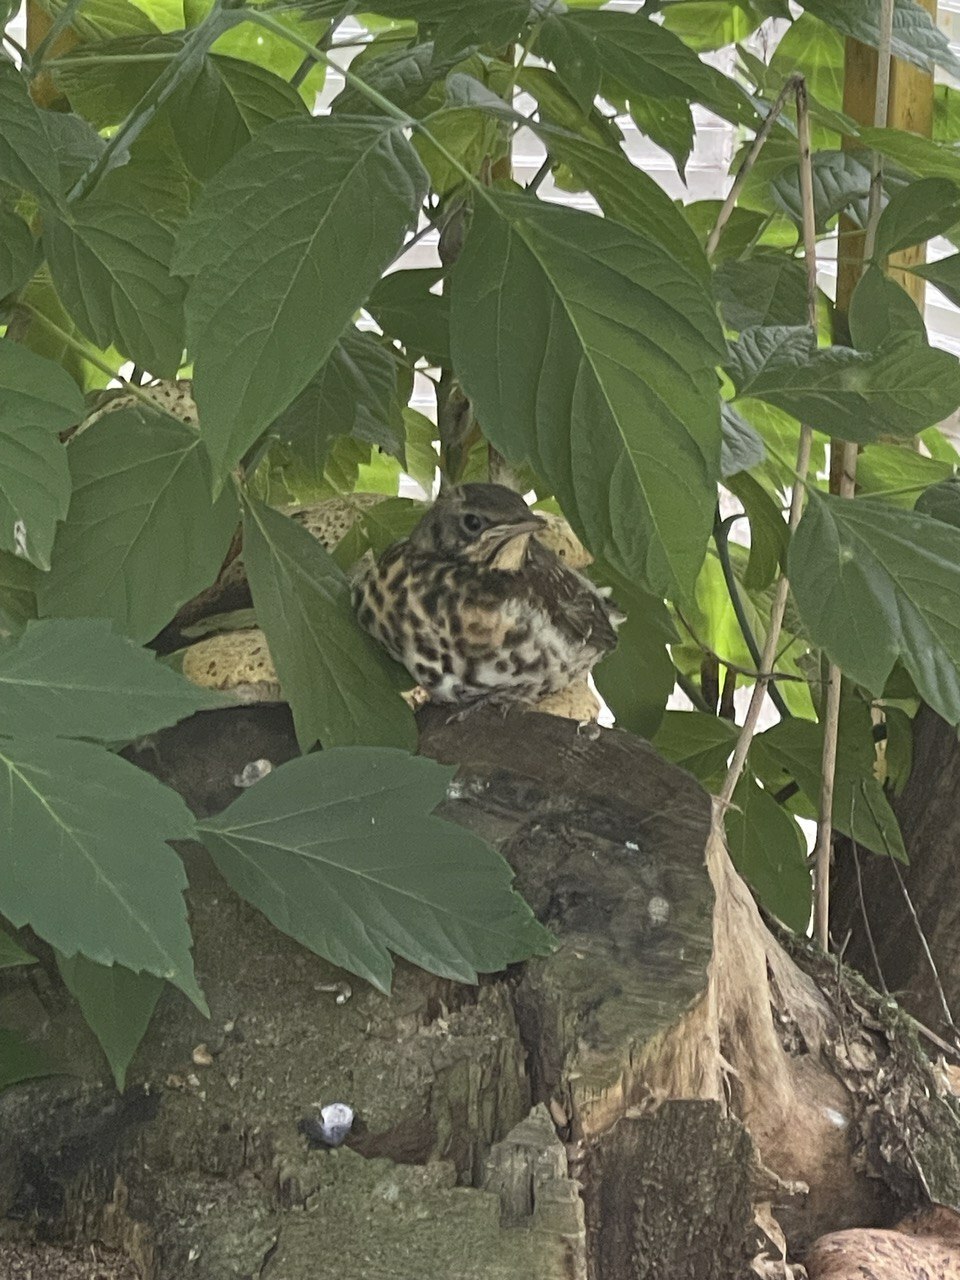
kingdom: Animalia
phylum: Chordata
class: Aves
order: Passeriformes
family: Turdidae
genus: Turdus
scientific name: Turdus pilaris
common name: Fieldfare
